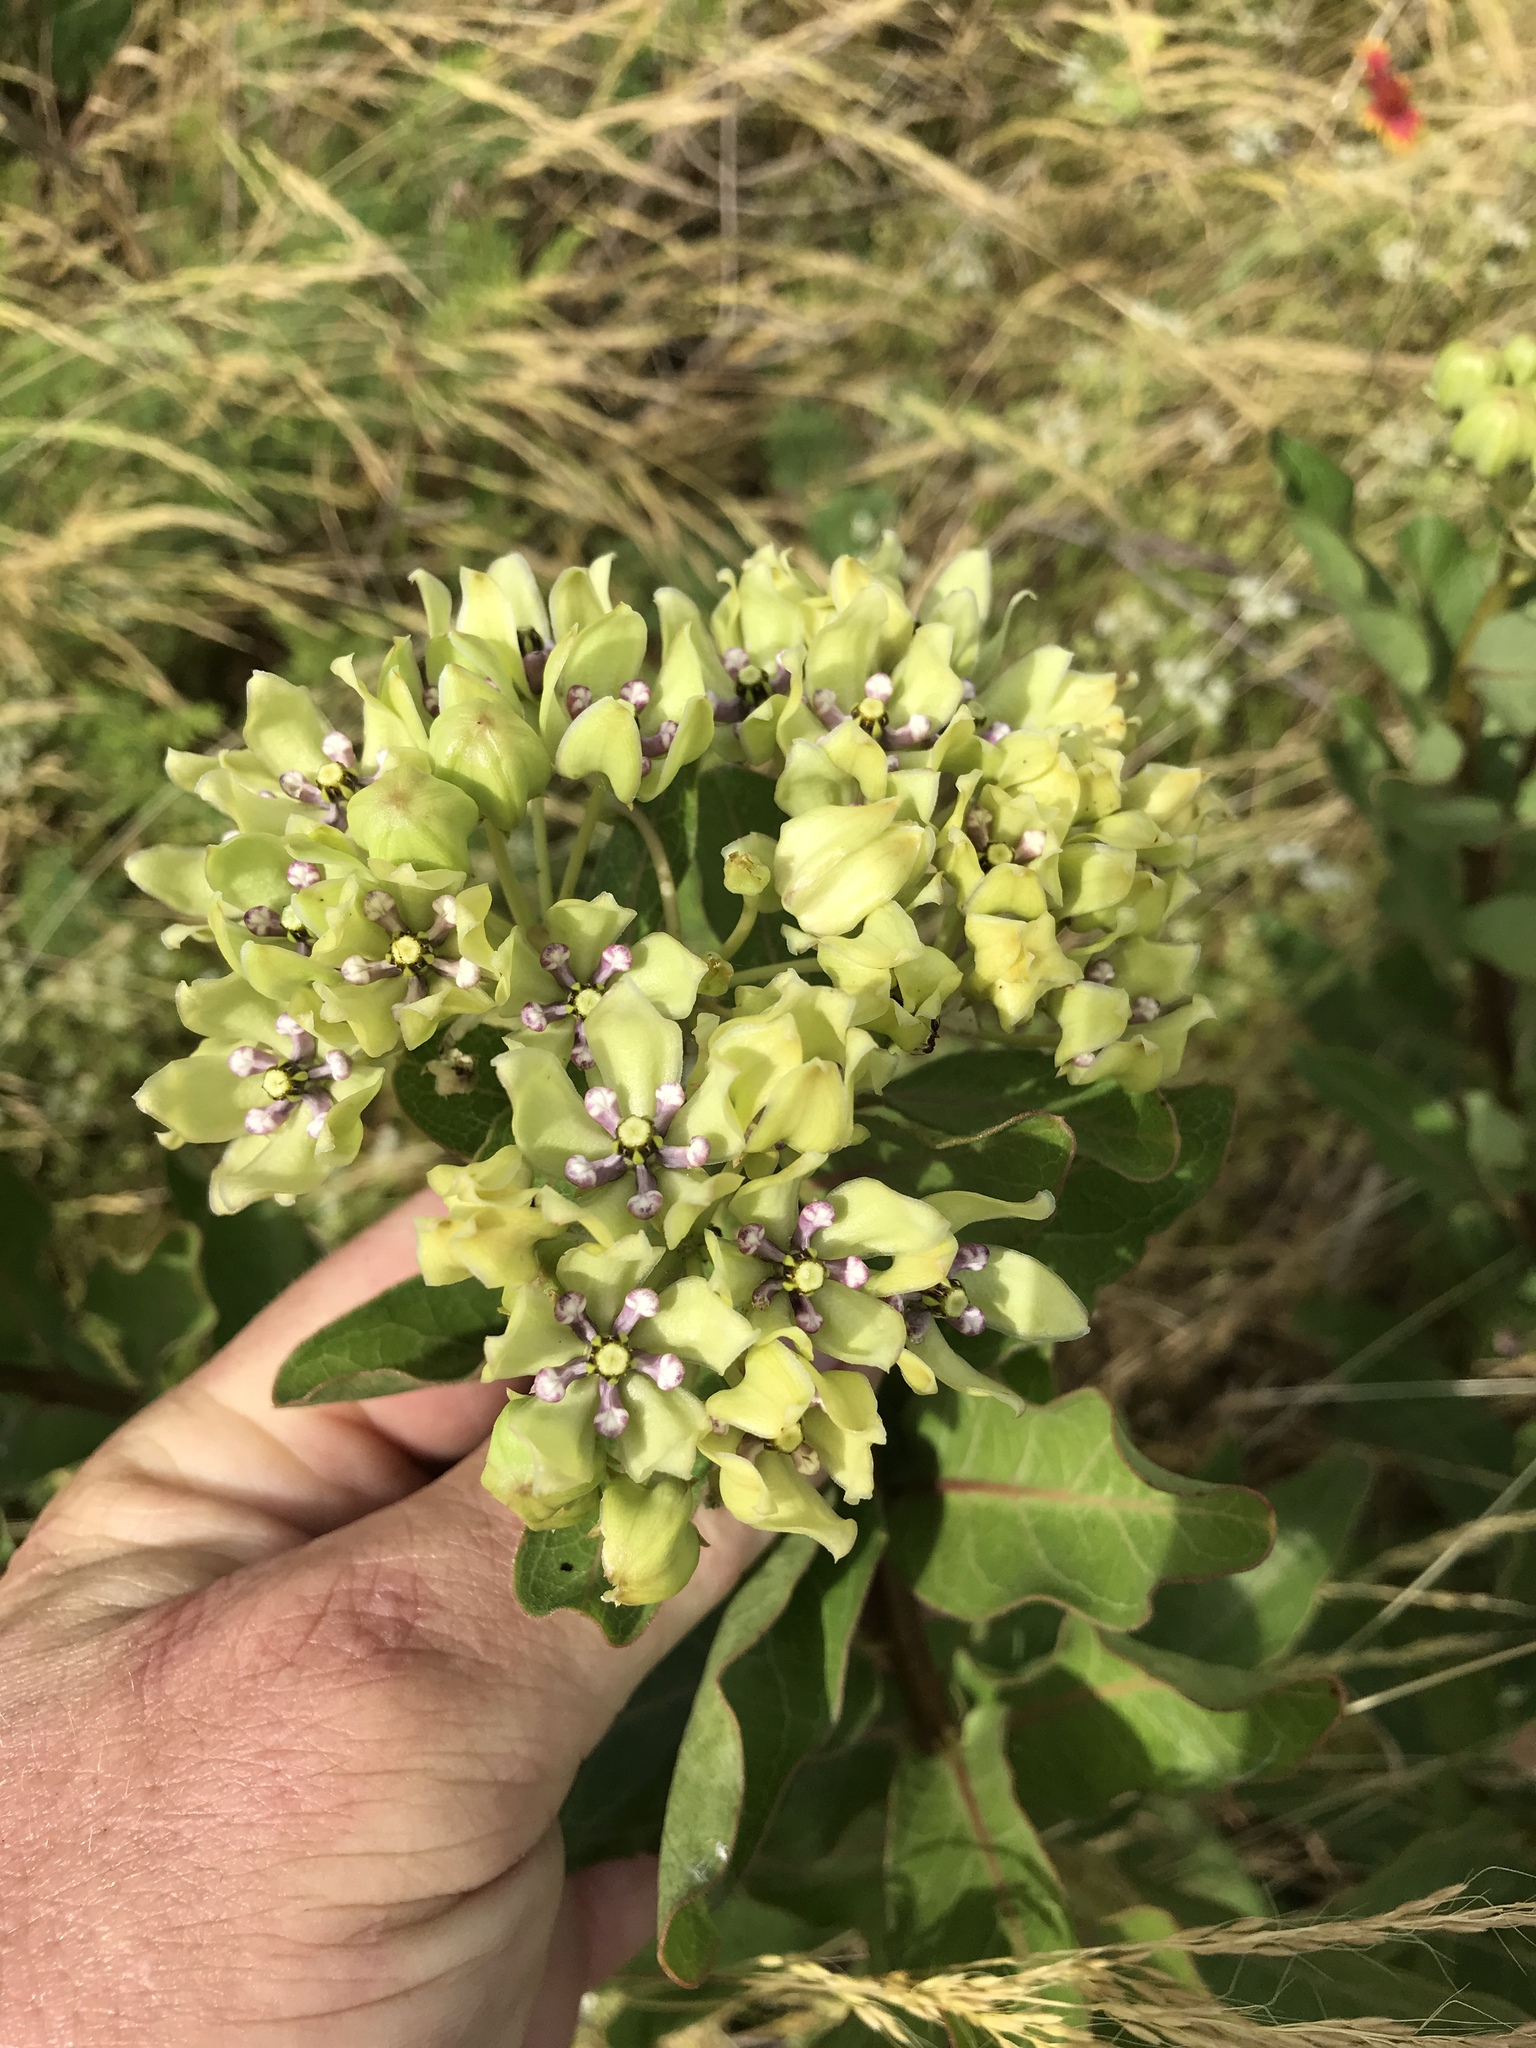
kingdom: Plantae
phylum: Tracheophyta
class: Magnoliopsida
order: Gentianales
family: Apocynaceae
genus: Asclepias
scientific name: Asclepias viridis
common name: Antelope-horns
